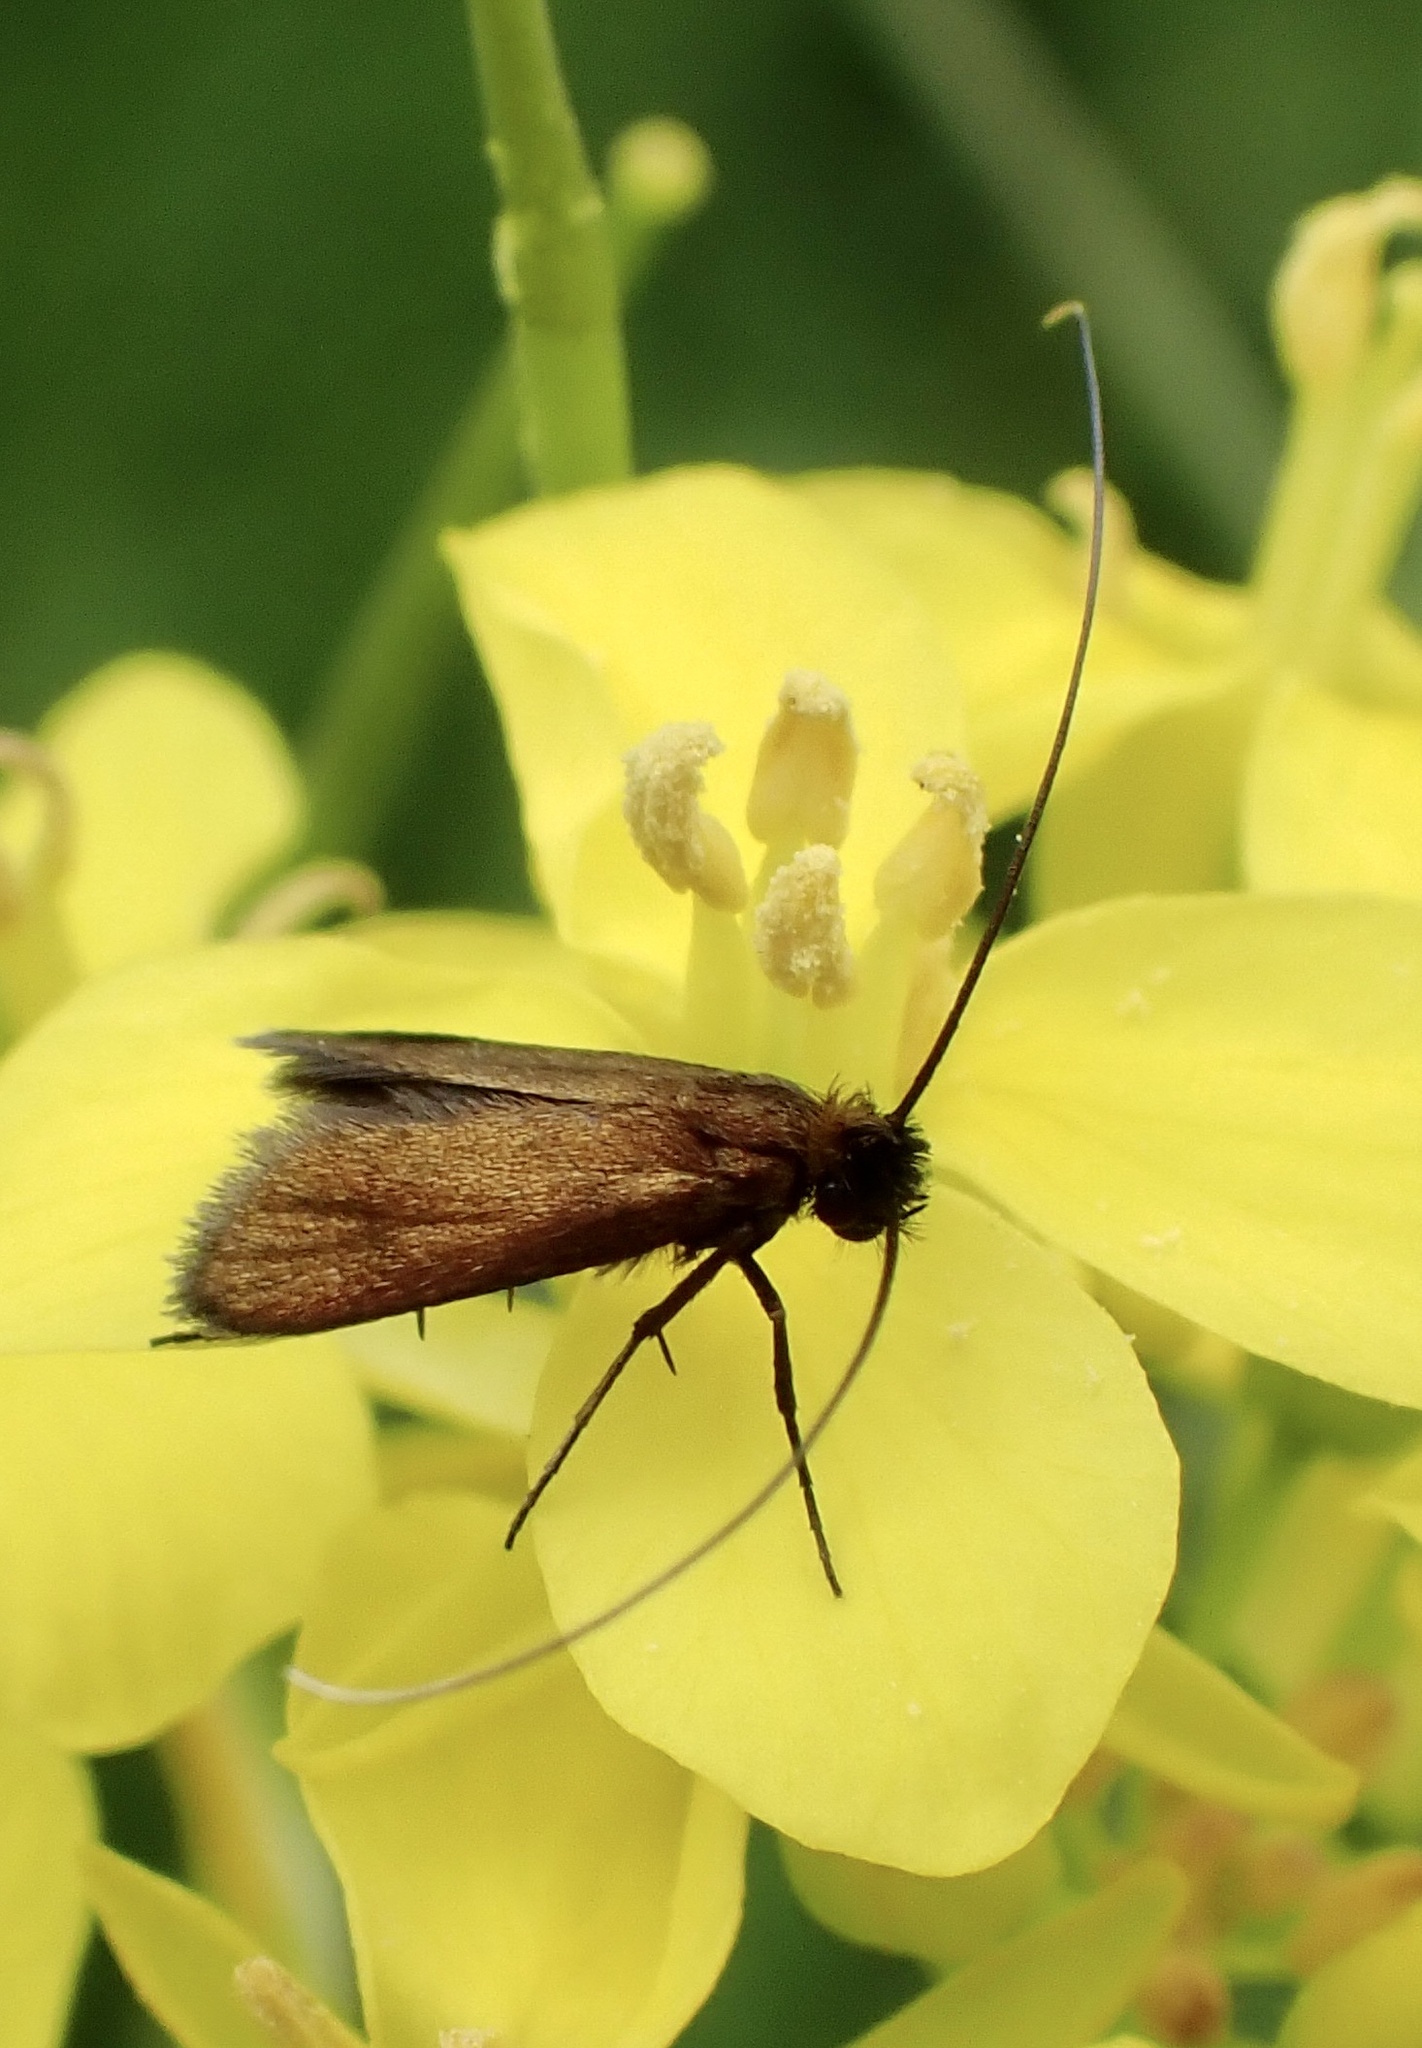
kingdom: Animalia
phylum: Arthropoda
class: Insecta
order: Lepidoptera
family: Adelidae
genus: Cauchas
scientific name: Cauchas rufimitrella
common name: Meadow long-horn
